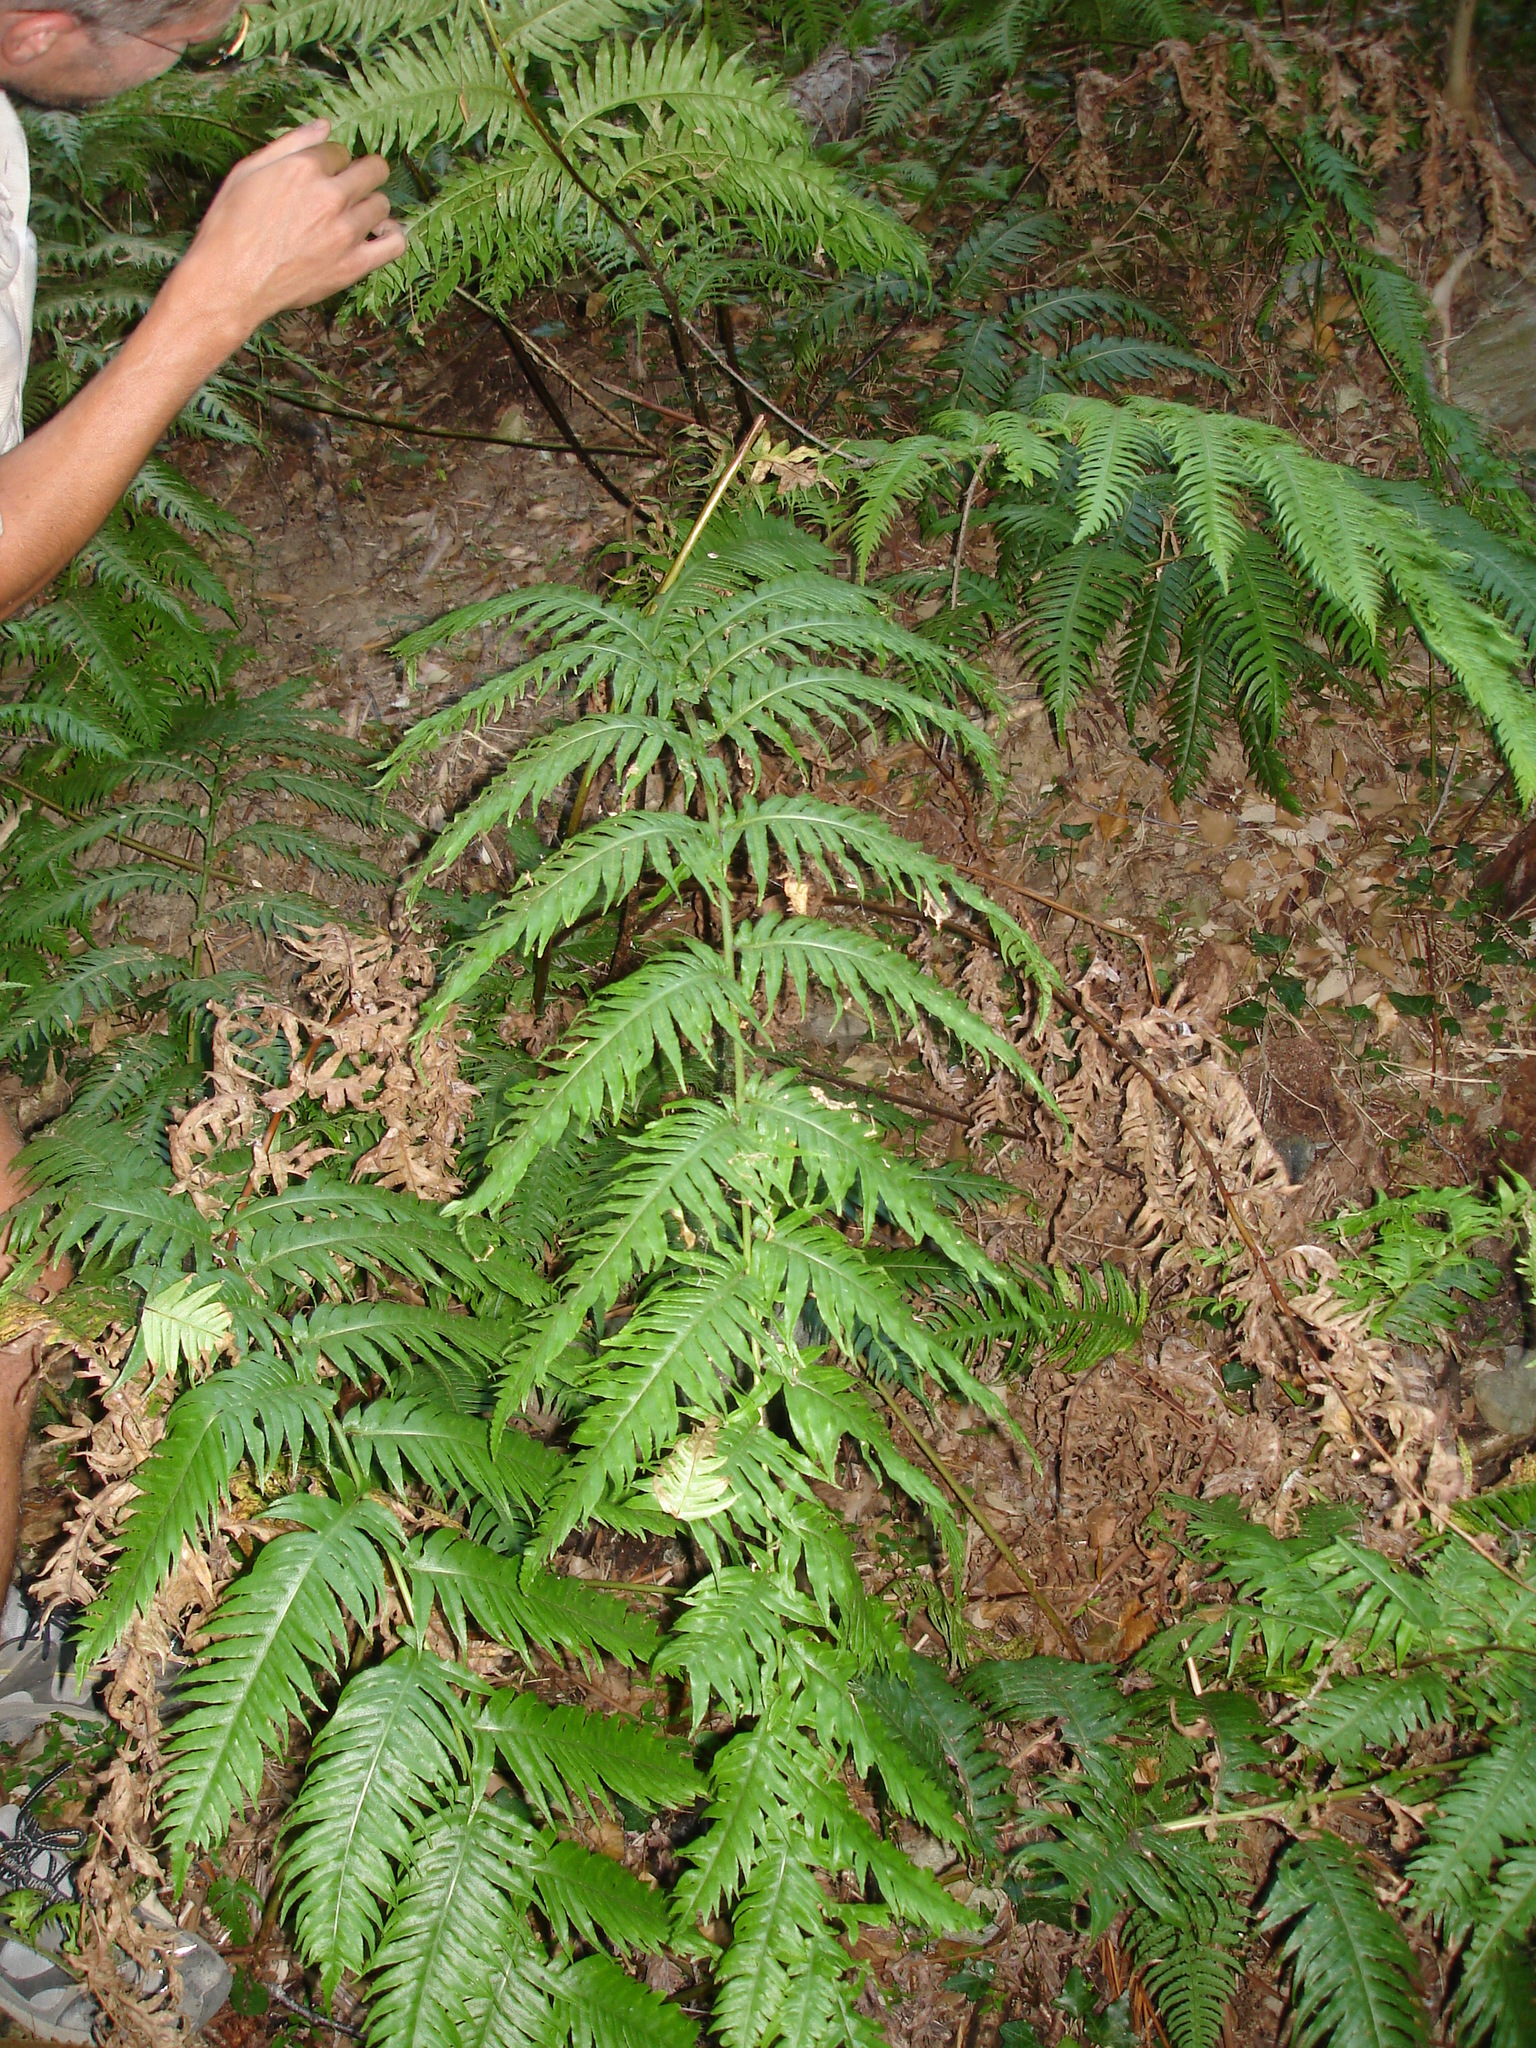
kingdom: Plantae
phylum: Tracheophyta
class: Polypodiopsida
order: Polypodiales
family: Blechnaceae
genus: Woodwardia
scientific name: Woodwardia radicans
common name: Rooting chainfern
